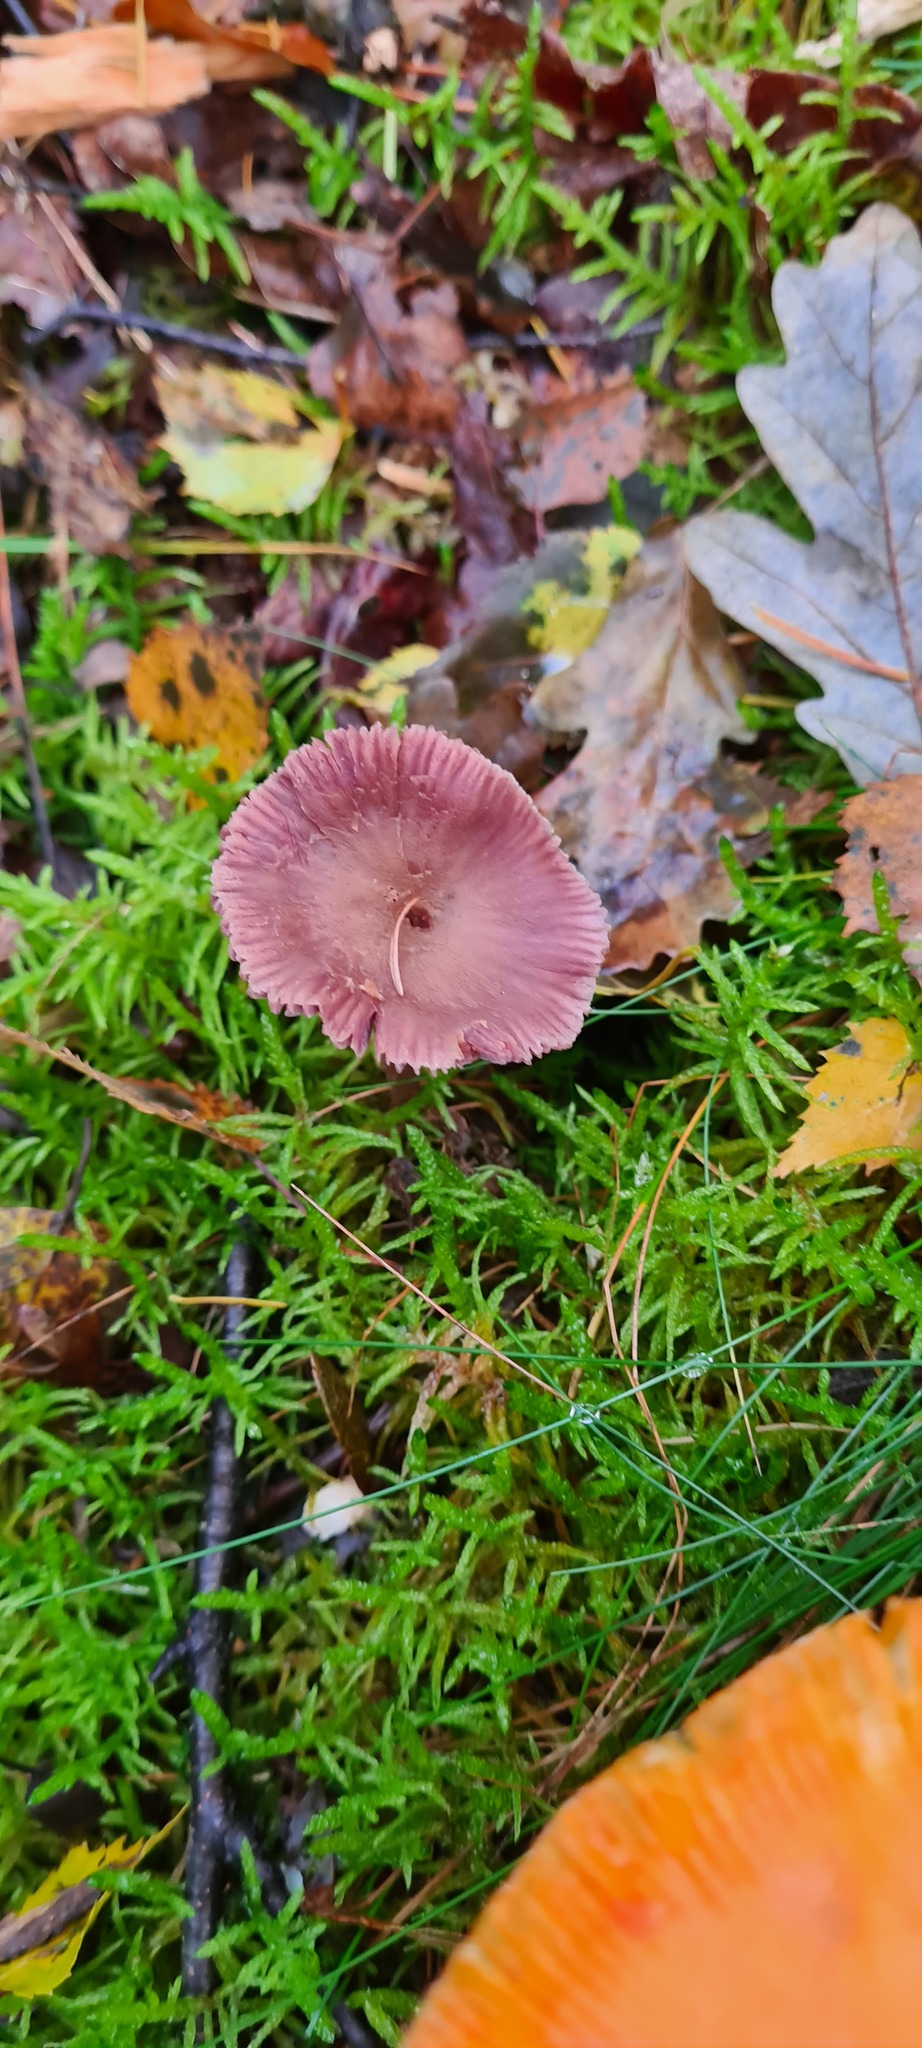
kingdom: Fungi
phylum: Basidiomycota
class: Agaricomycetes
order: Agaricales
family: Hydnangiaceae
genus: Laccaria
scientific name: Laccaria amethystina
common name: Amethyst deceiver
